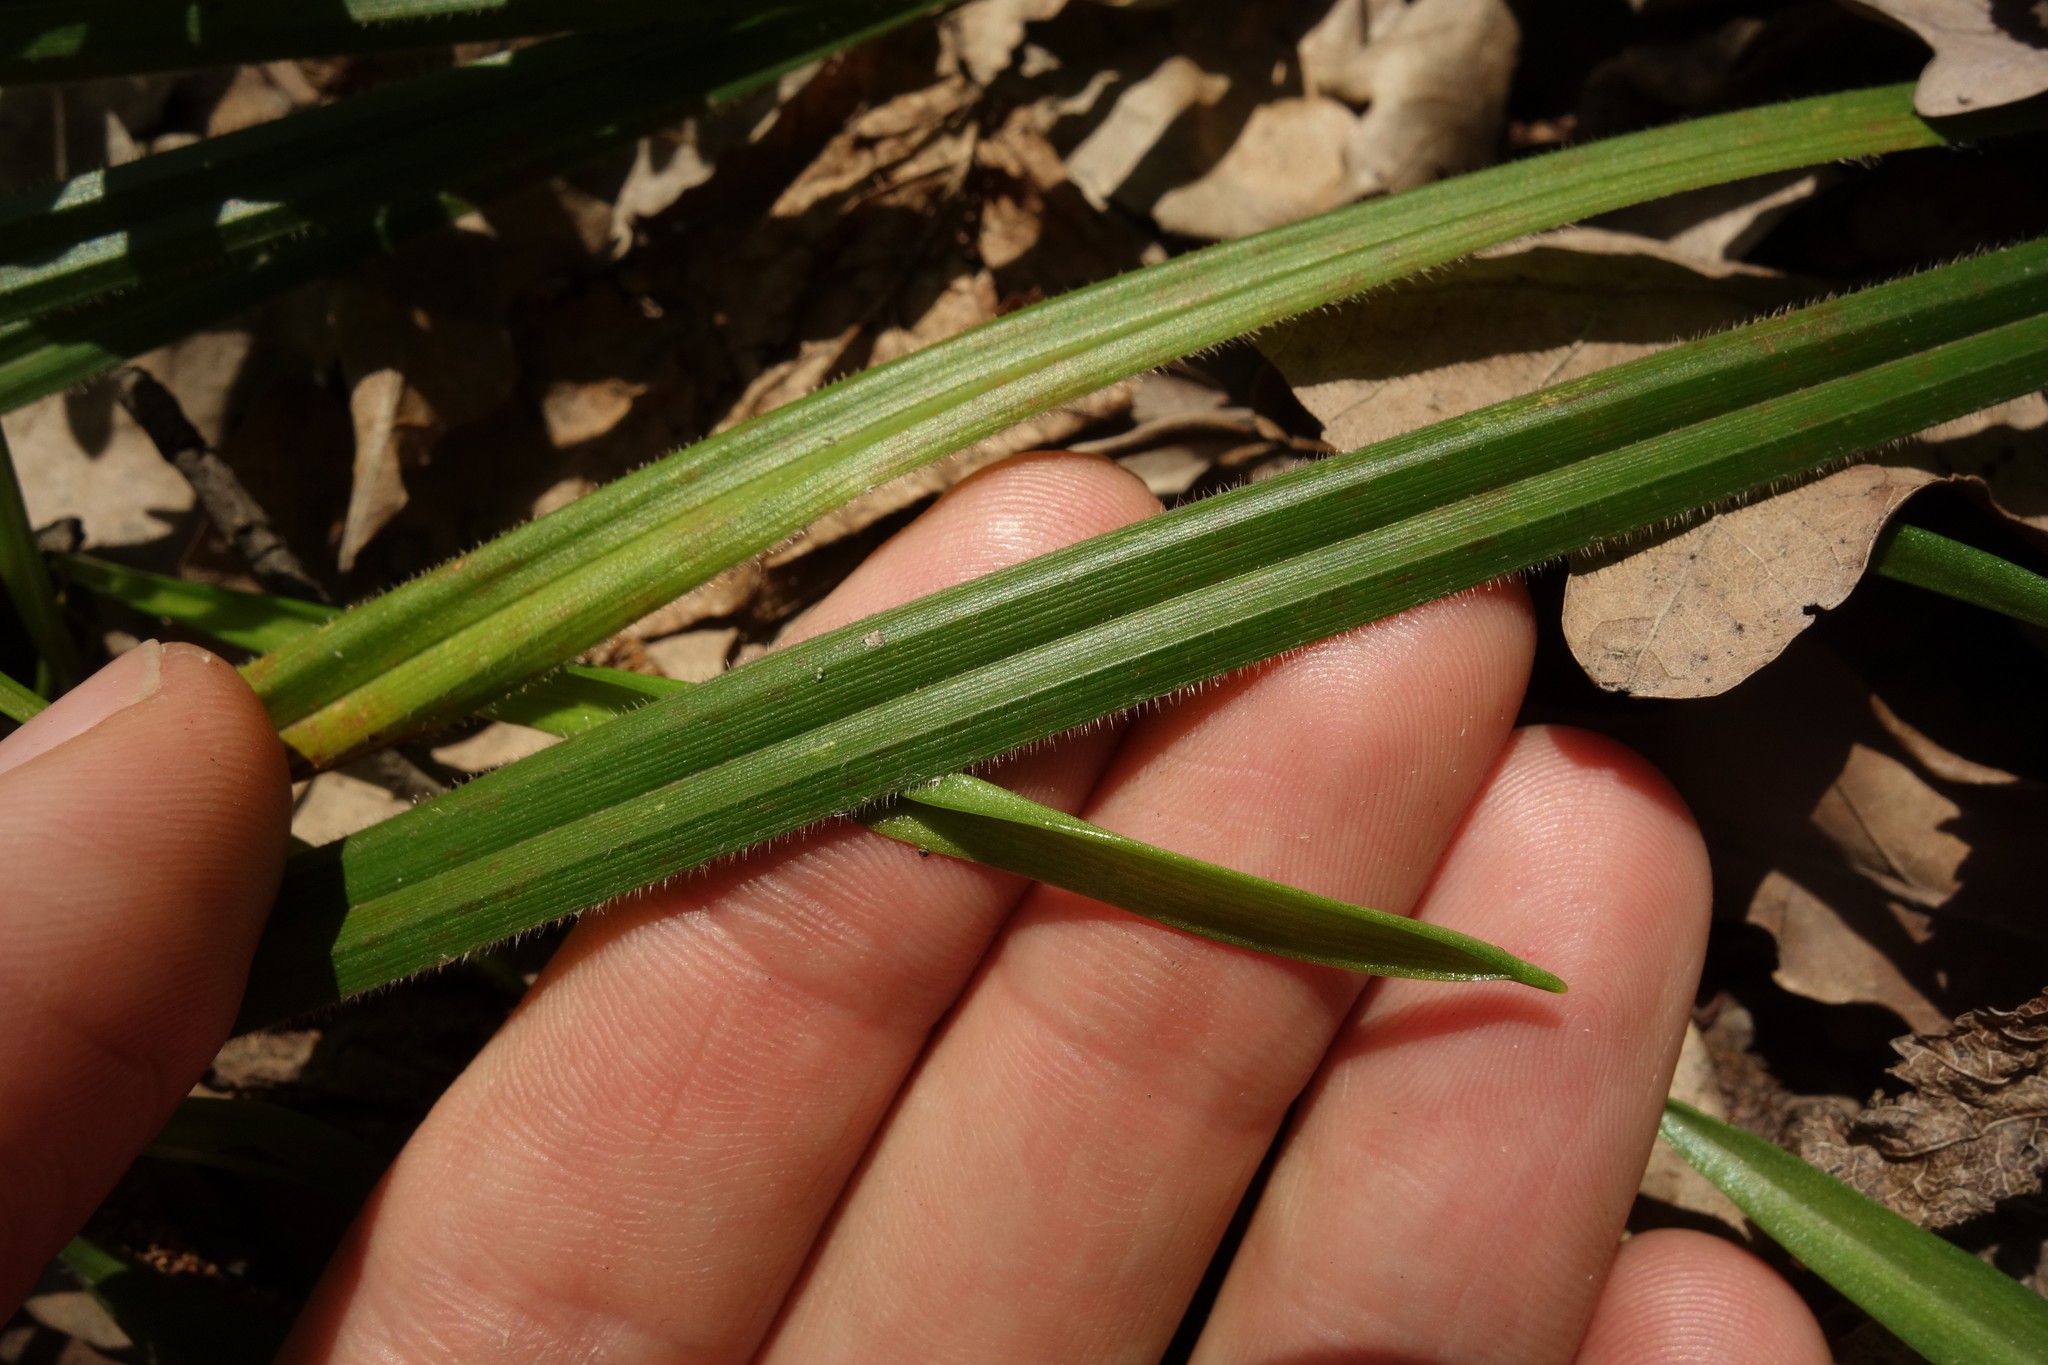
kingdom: Plantae
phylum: Tracheophyta
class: Liliopsida
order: Poales
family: Cyperaceae
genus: Carex
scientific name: Carex pilosa
